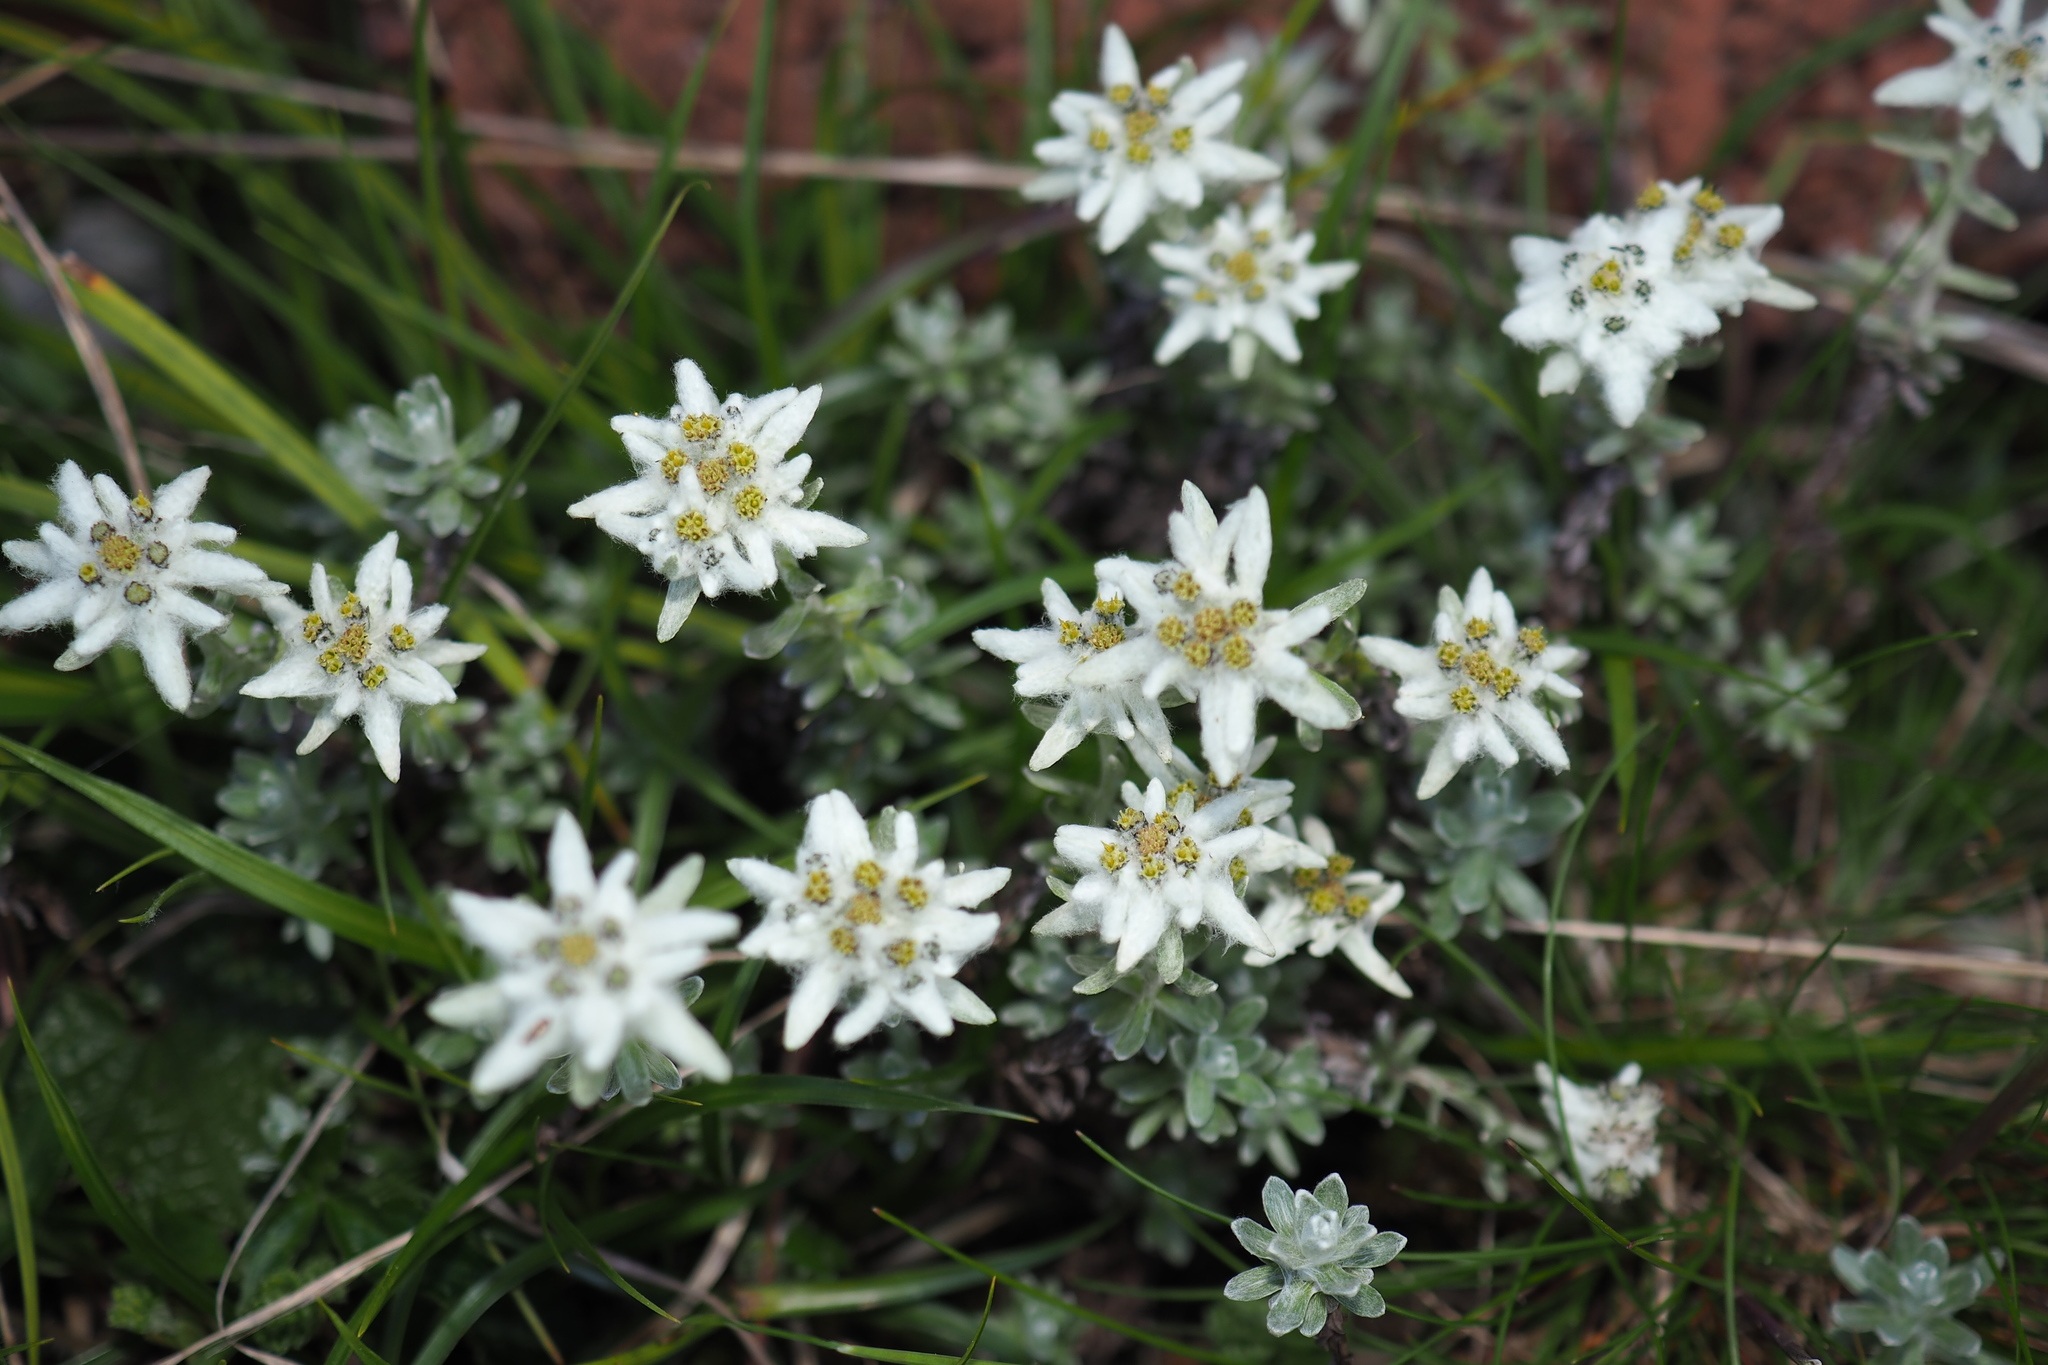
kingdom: Plantae
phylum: Tracheophyta
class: Magnoliopsida
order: Asterales
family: Asteraceae
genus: Leontopodium
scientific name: Leontopodium microphyllum
